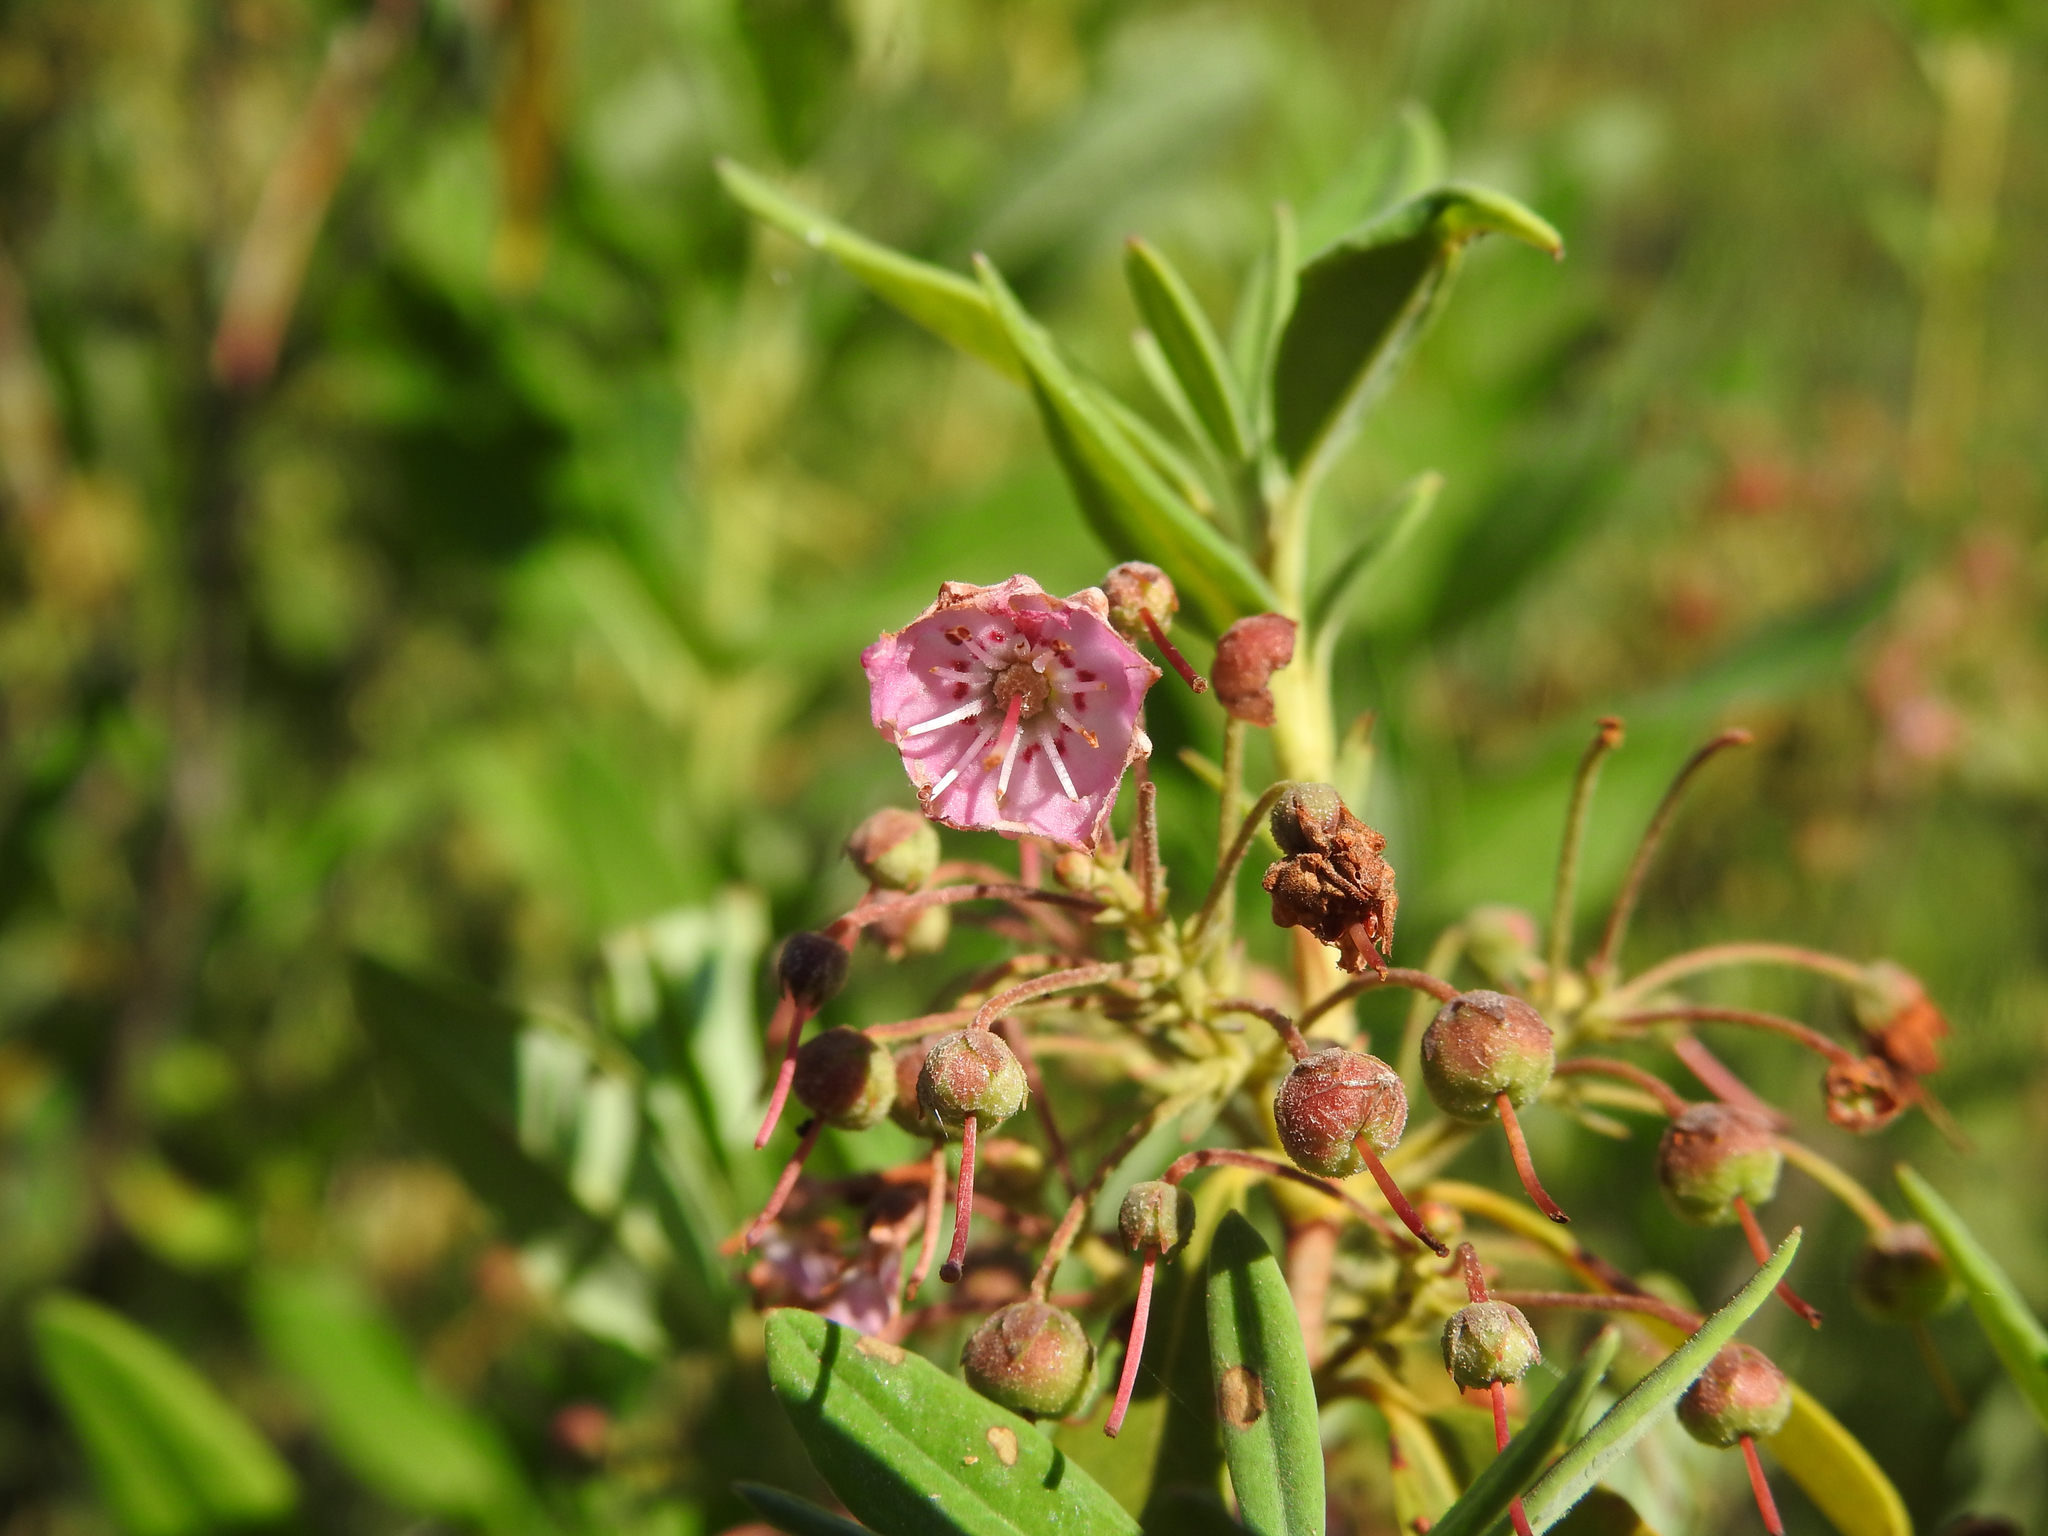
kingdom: Plantae
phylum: Tracheophyta
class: Magnoliopsida
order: Ericales
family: Ericaceae
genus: Kalmia
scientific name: Kalmia angustifolia
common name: Sheep-laurel
